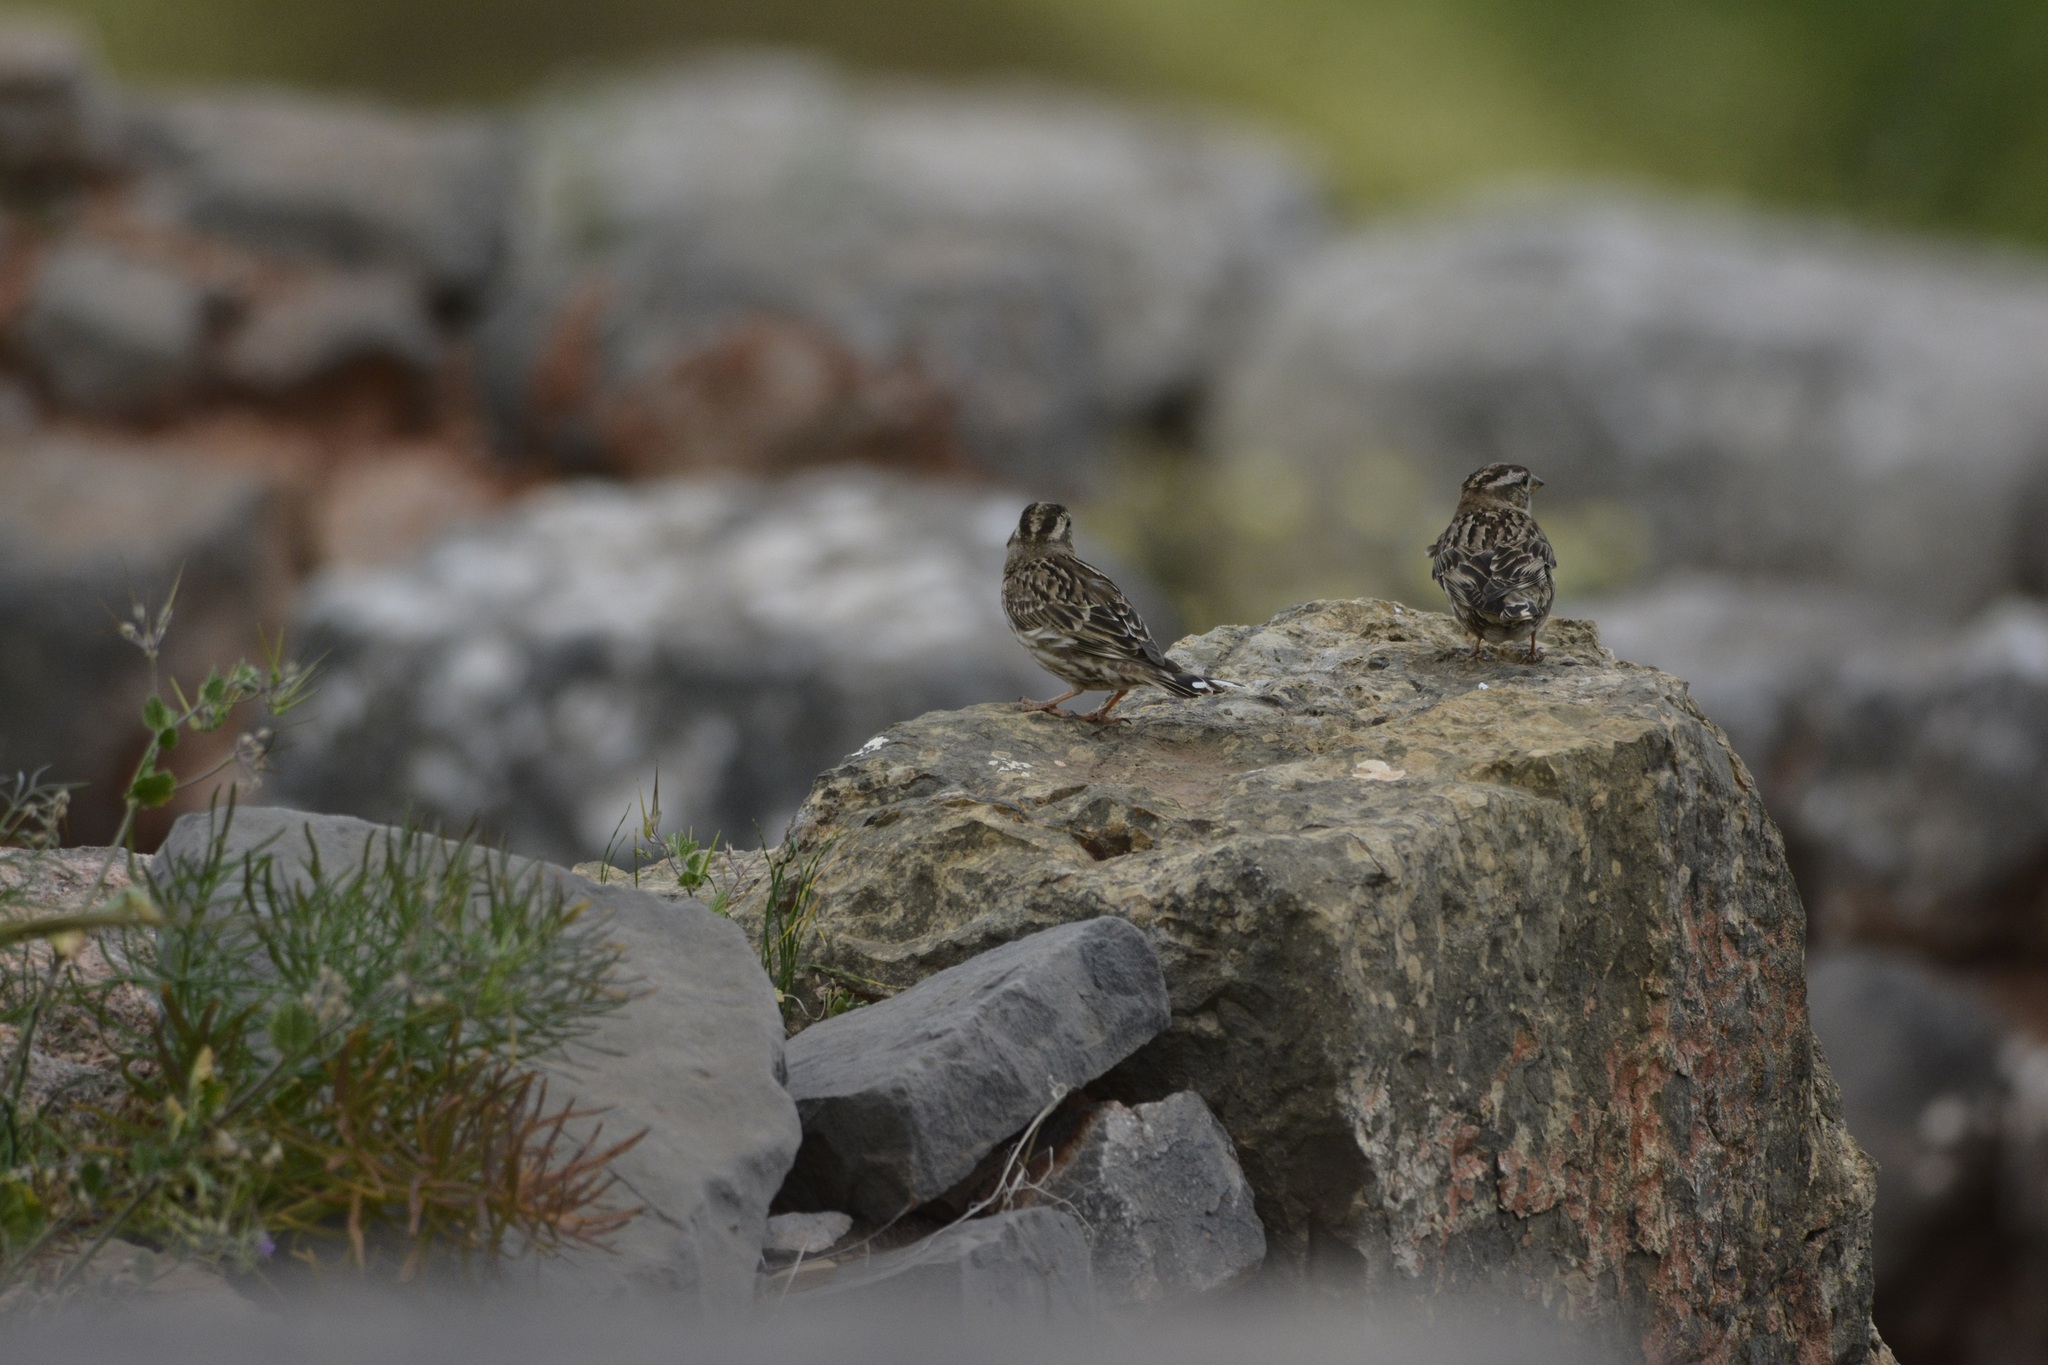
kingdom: Animalia
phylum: Chordata
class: Aves
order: Passeriformes
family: Passeridae
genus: Petronia
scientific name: Petronia petronia
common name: Rock sparrow
